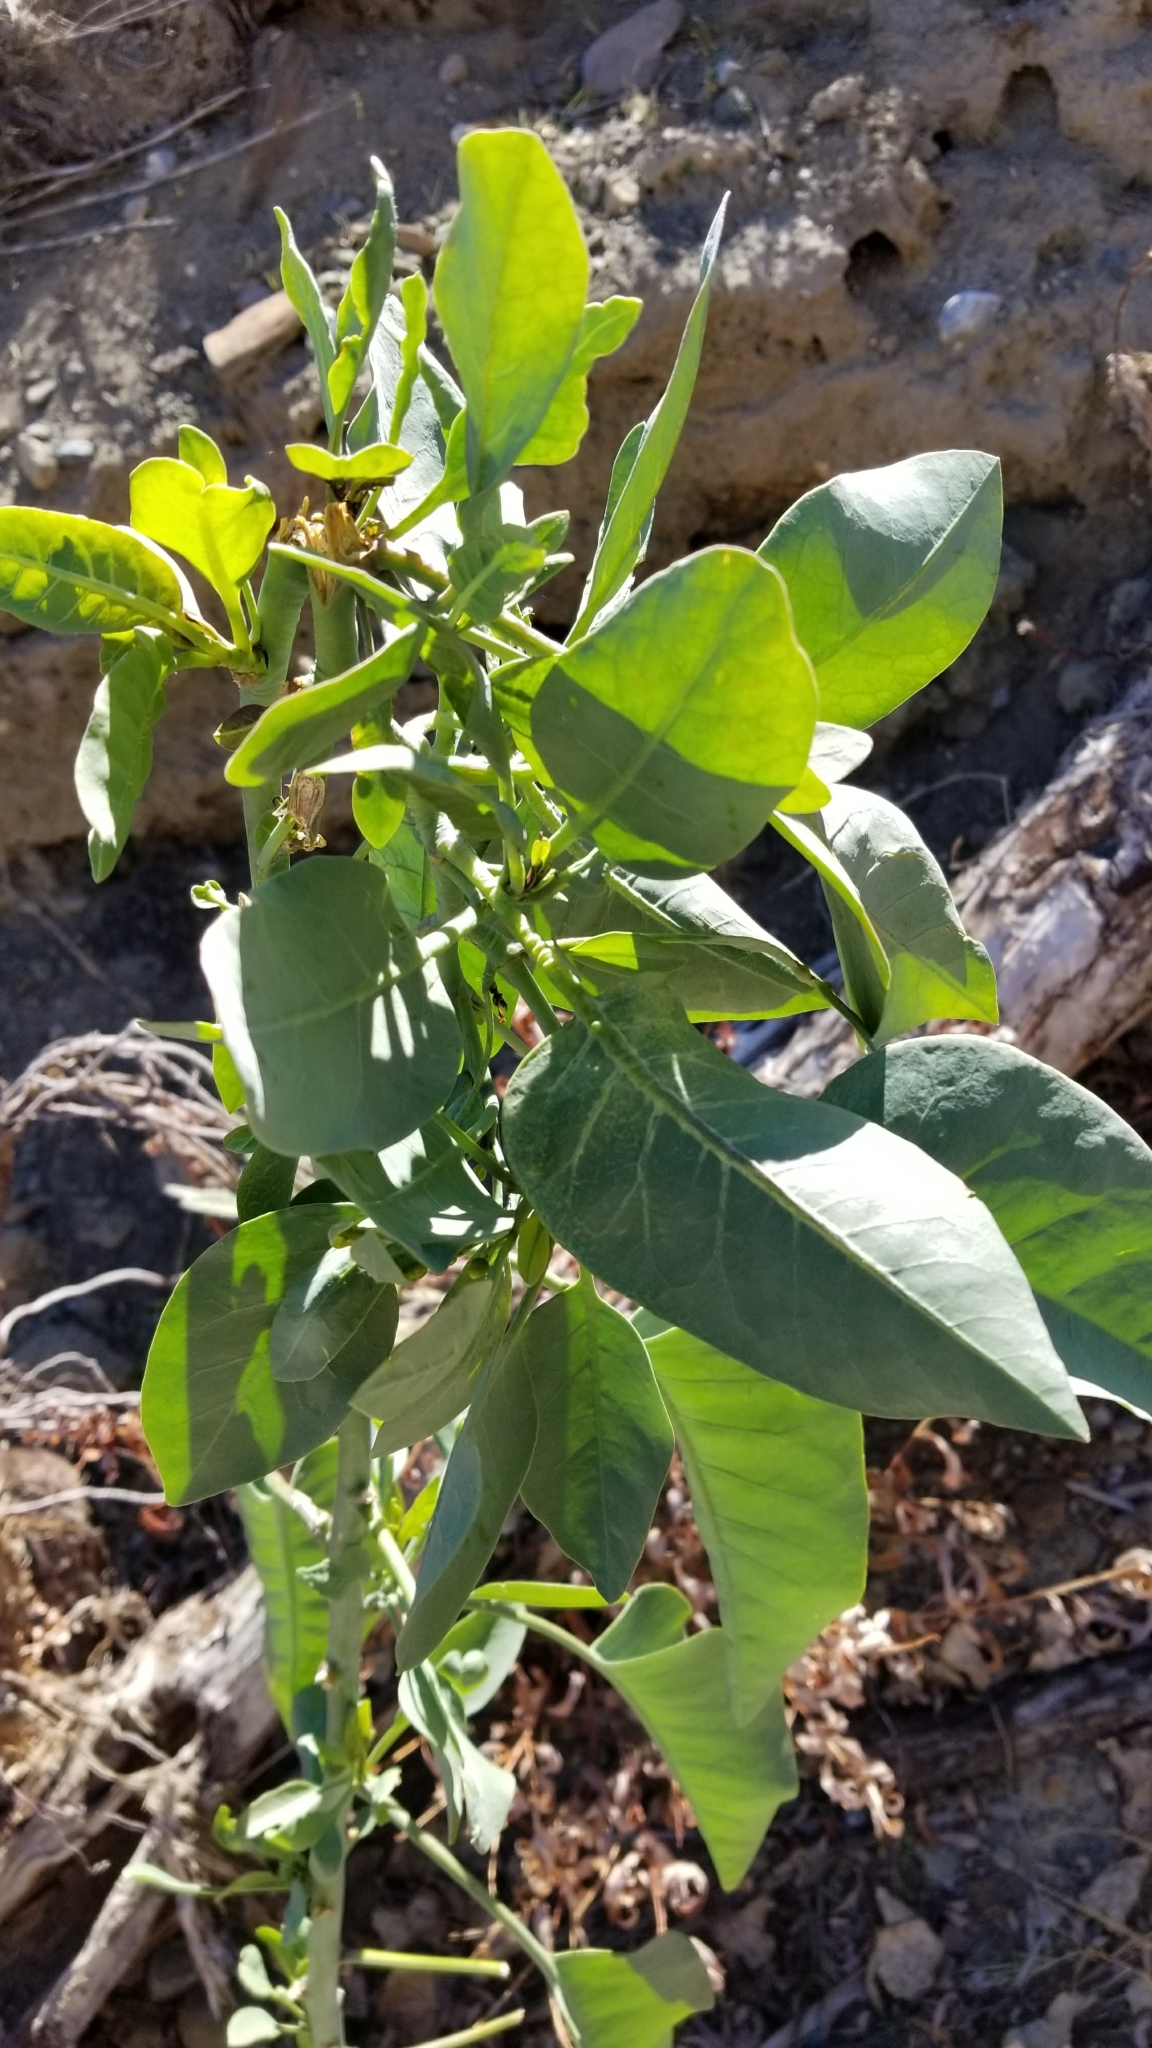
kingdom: Plantae
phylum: Tracheophyta
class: Magnoliopsida
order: Solanales
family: Solanaceae
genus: Nicotiana
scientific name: Nicotiana glauca
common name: Tree tobacco
